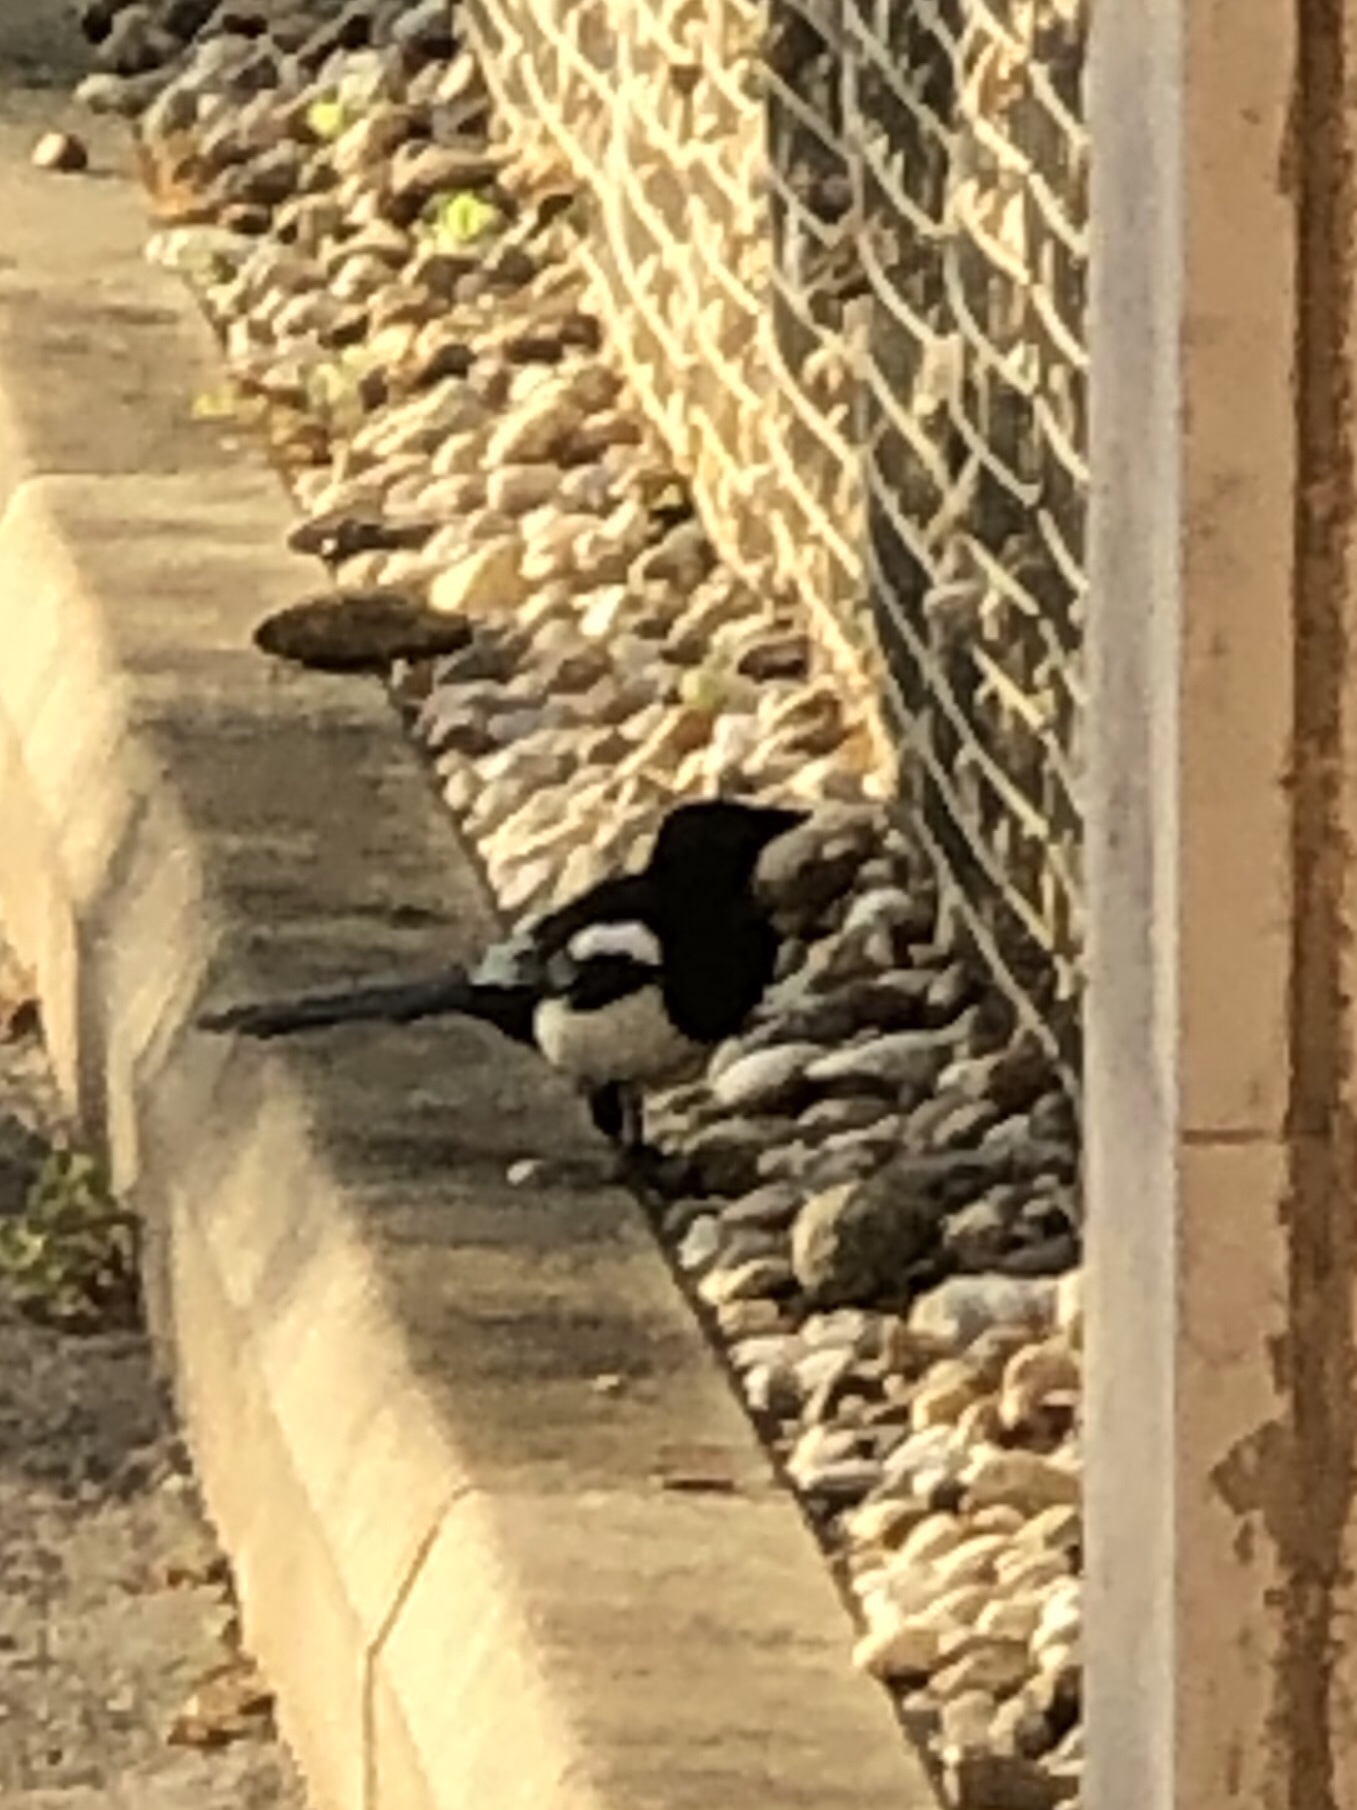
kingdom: Animalia
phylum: Chordata
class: Aves
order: Passeriformes
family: Corvidae
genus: Pica
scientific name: Pica pica
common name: Eurasian magpie
